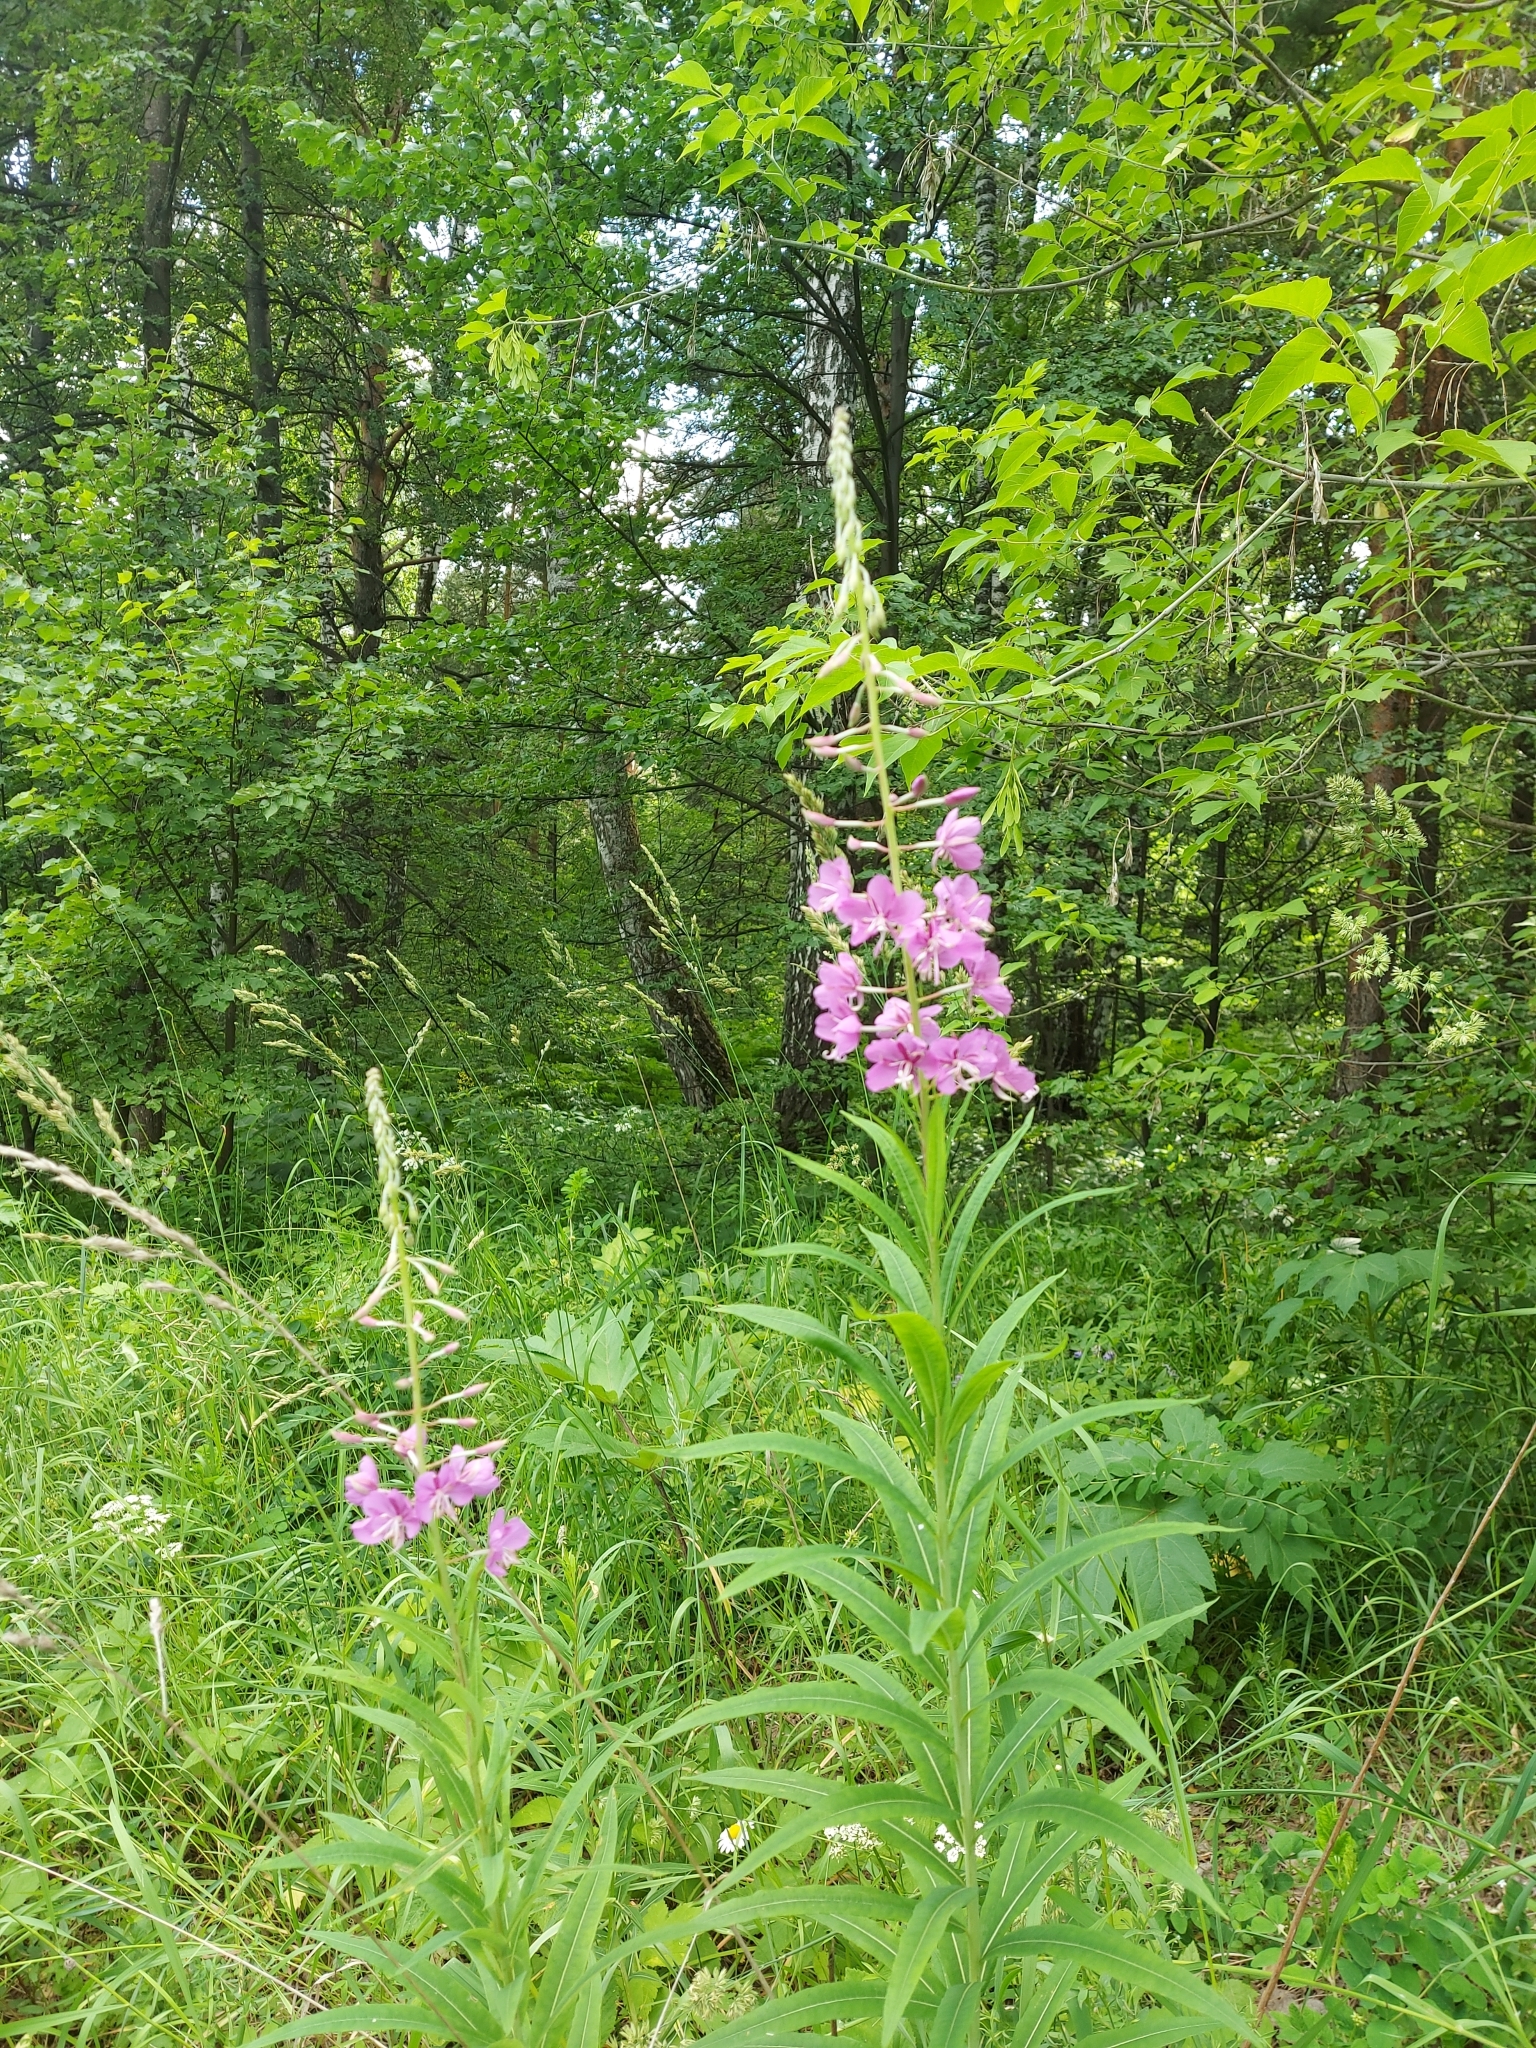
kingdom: Plantae
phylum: Tracheophyta
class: Magnoliopsida
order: Myrtales
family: Onagraceae
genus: Chamaenerion
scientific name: Chamaenerion angustifolium
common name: Fireweed
